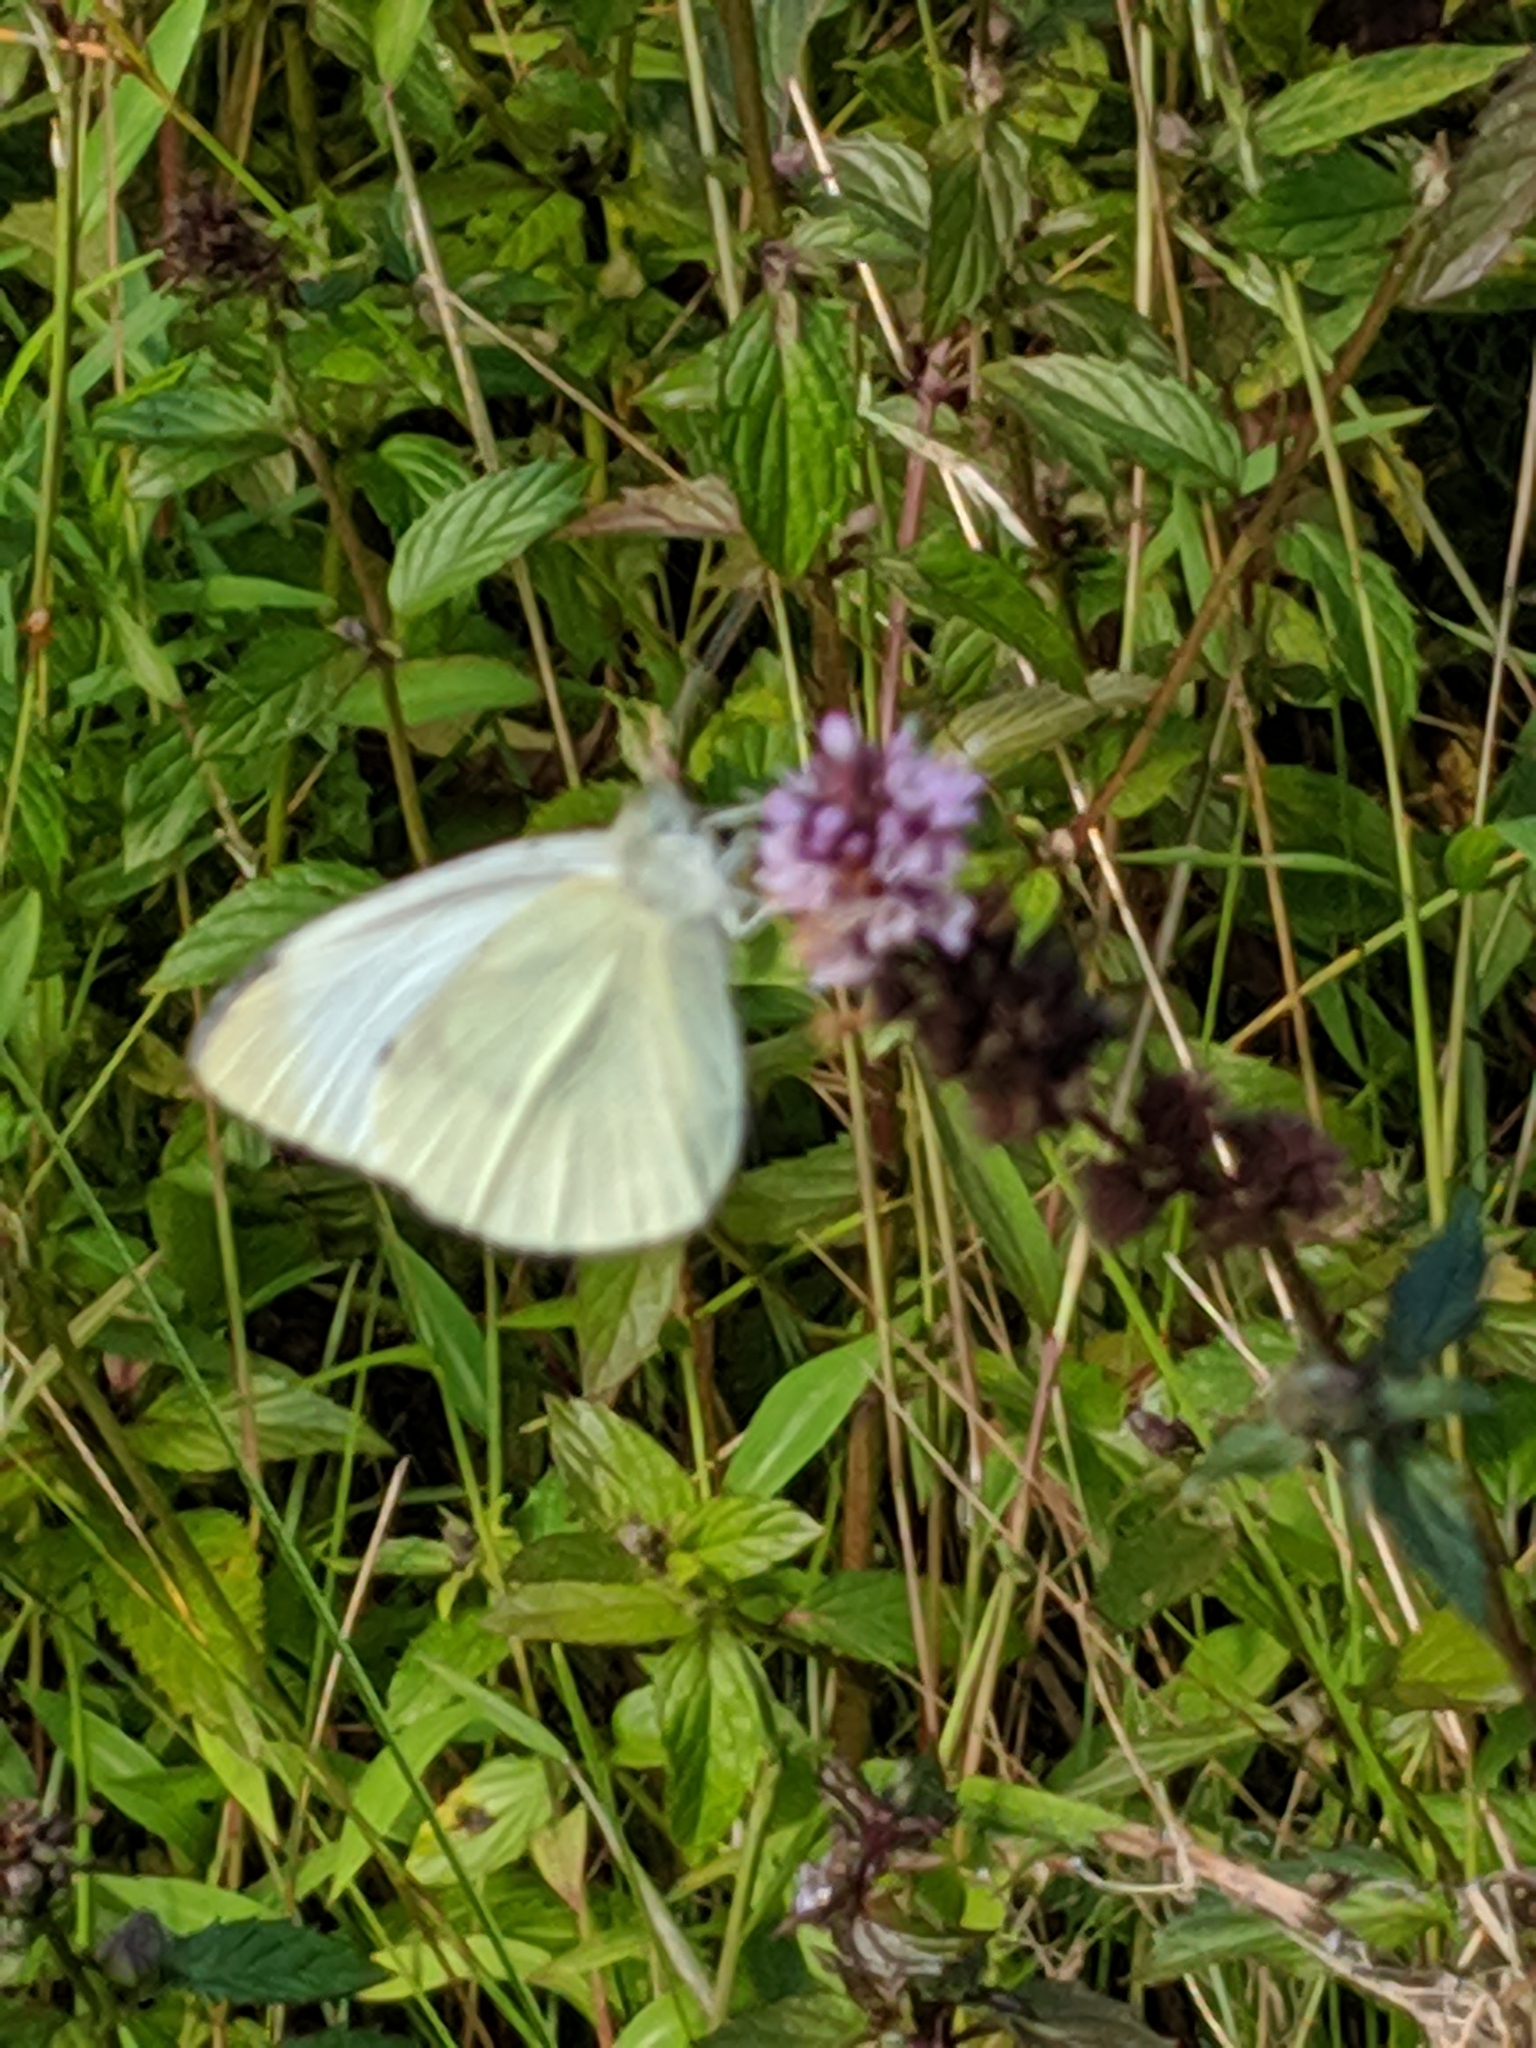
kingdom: Animalia
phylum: Arthropoda
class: Insecta
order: Lepidoptera
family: Pieridae
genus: Pieris
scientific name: Pieris rapae
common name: Small white
